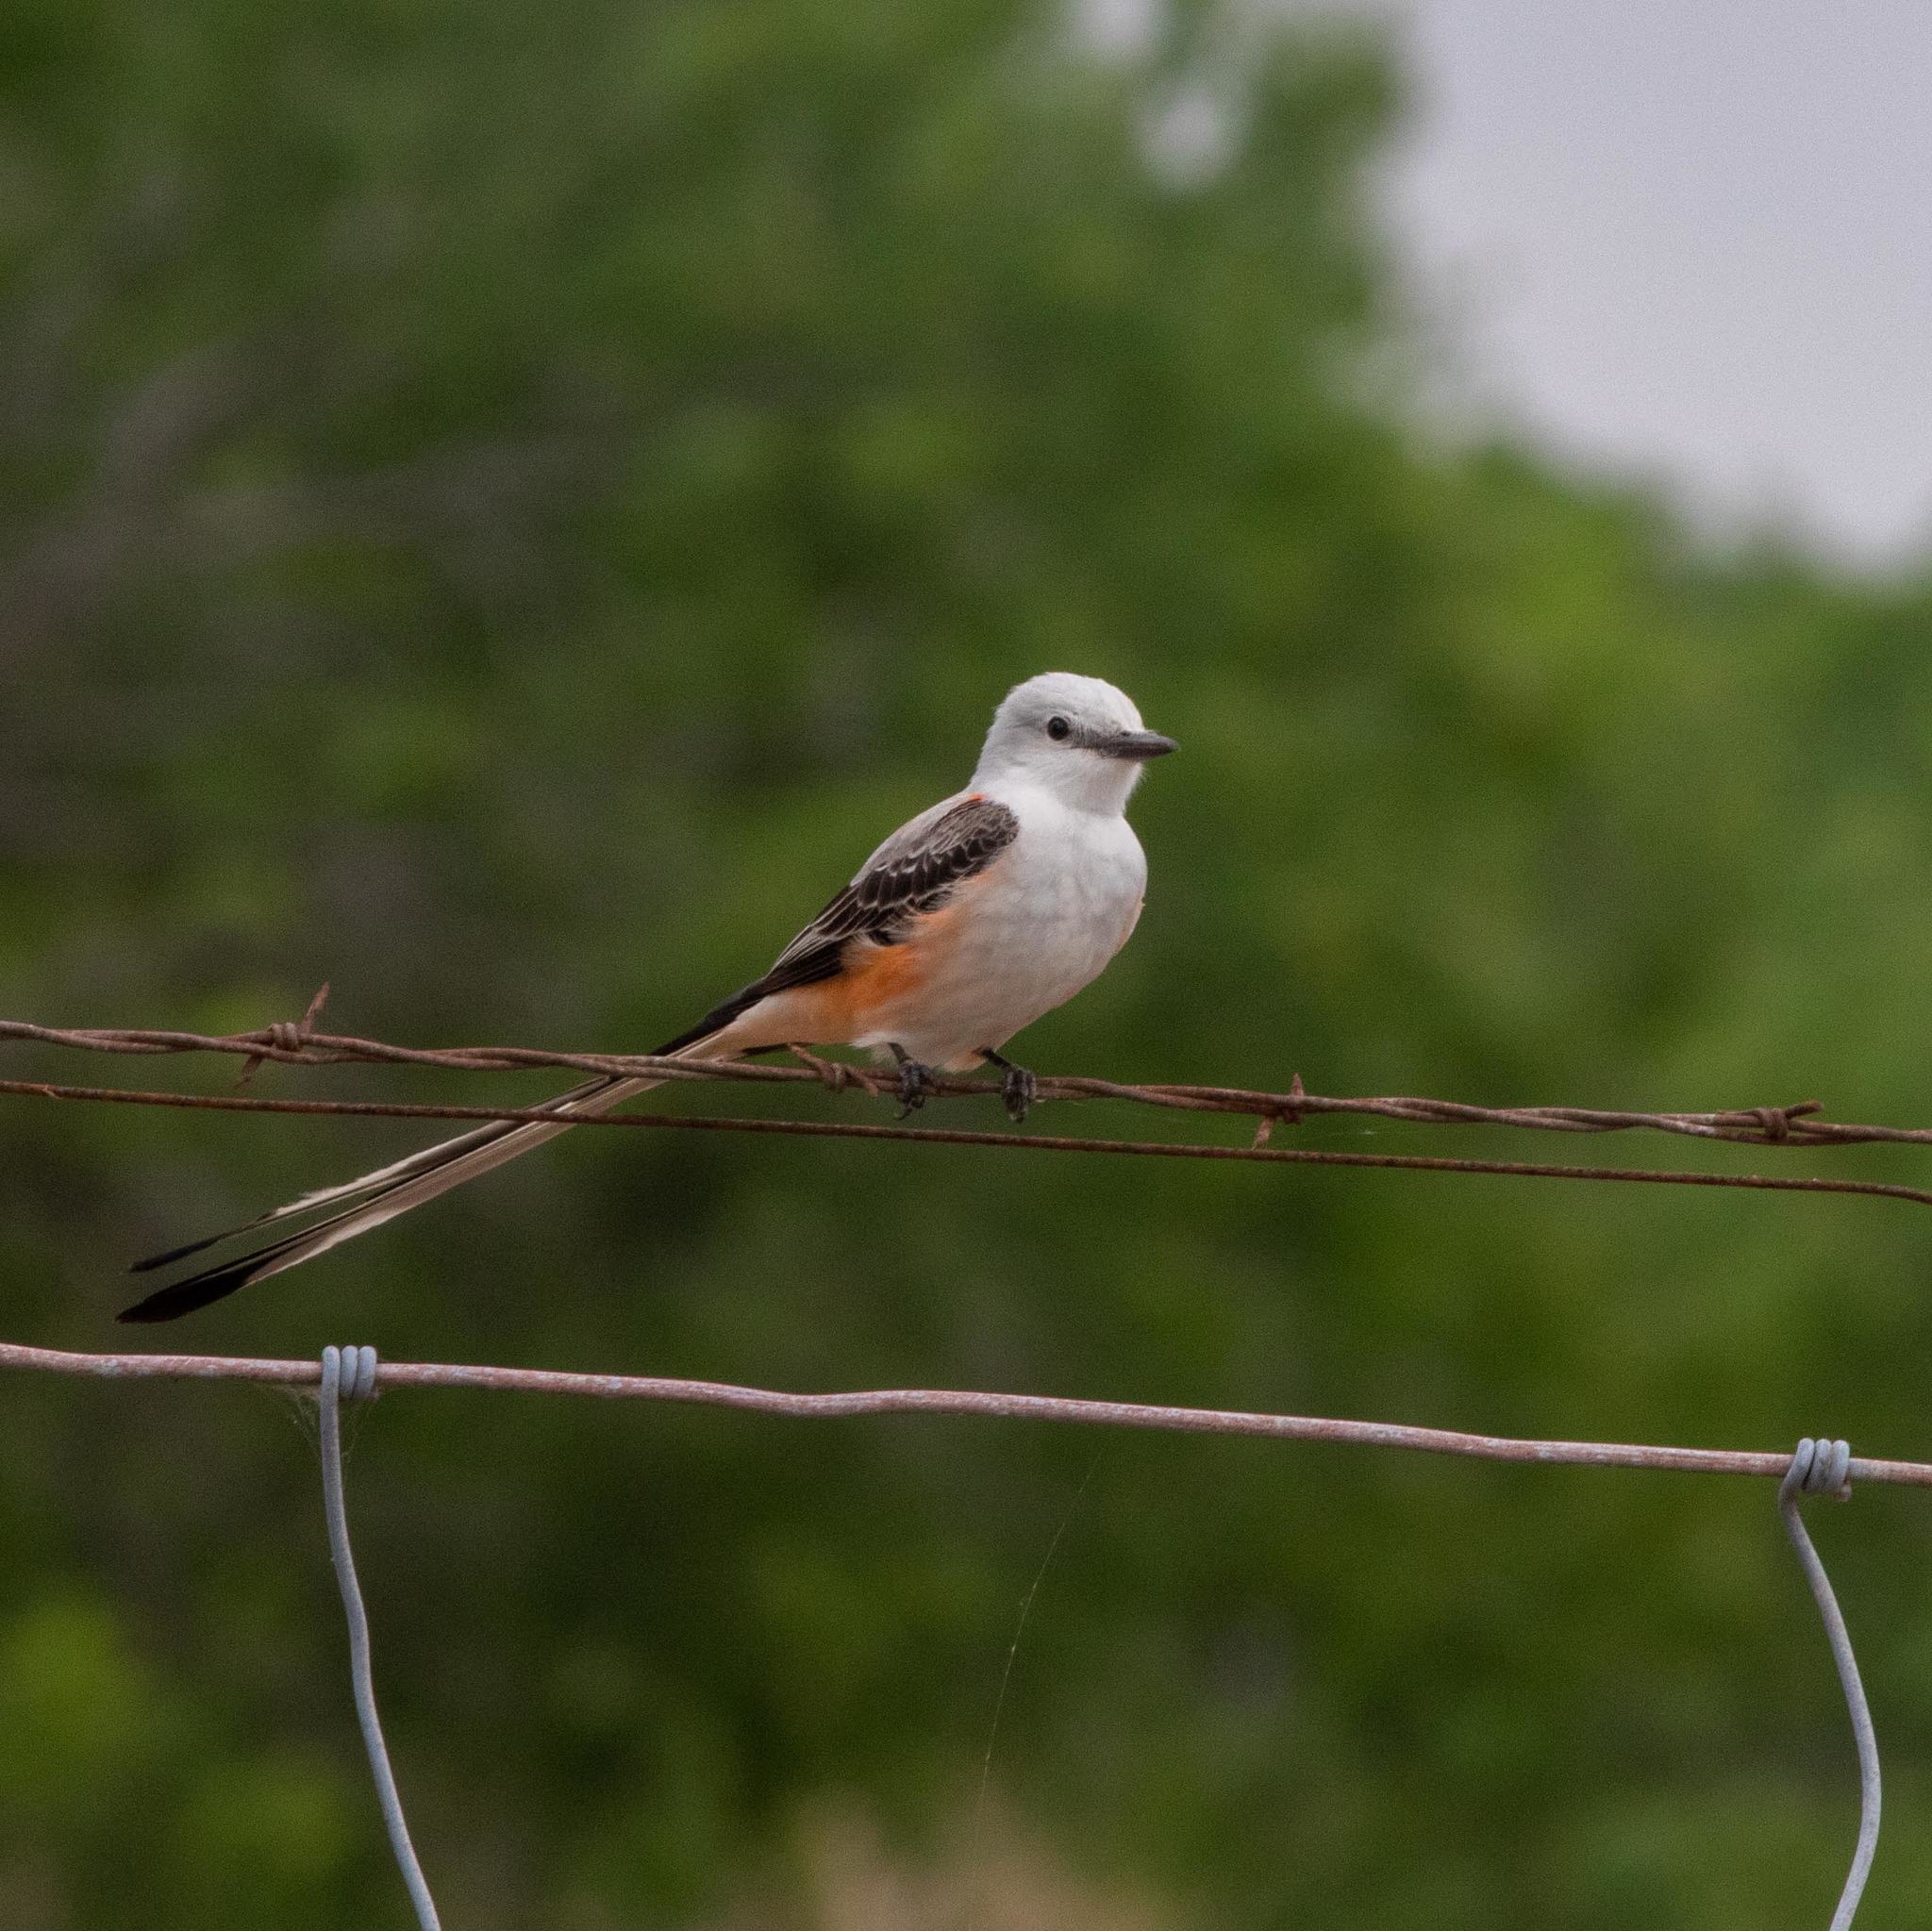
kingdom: Animalia
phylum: Chordata
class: Aves
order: Passeriformes
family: Tyrannidae
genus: Tyrannus
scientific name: Tyrannus forficatus
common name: Scissor-tailed flycatcher
